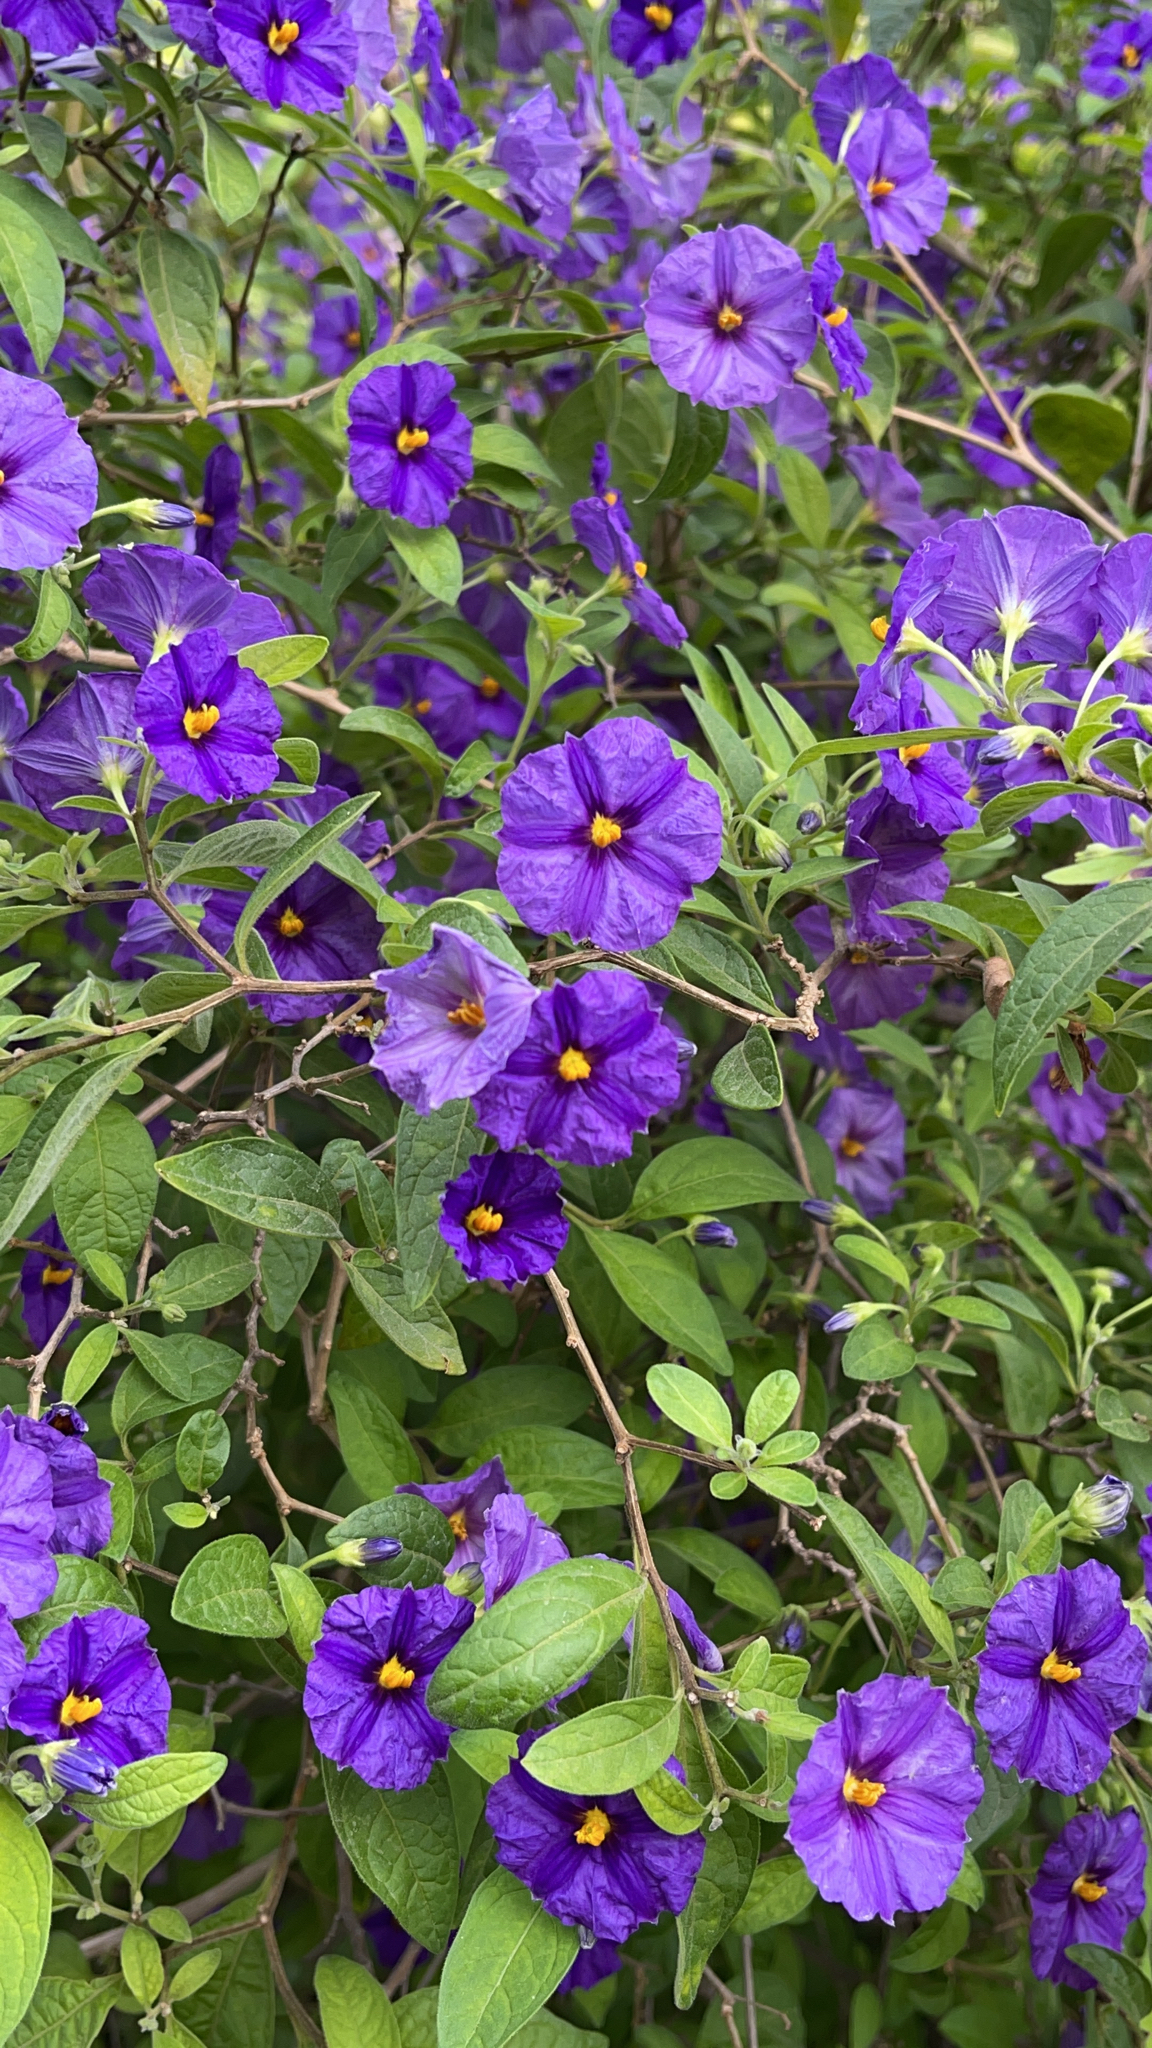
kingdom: Plantae
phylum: Tracheophyta
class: Magnoliopsida
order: Solanales
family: Solanaceae
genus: Lycianthes
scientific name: Lycianthes rantonnetii
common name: Blue potatobush
